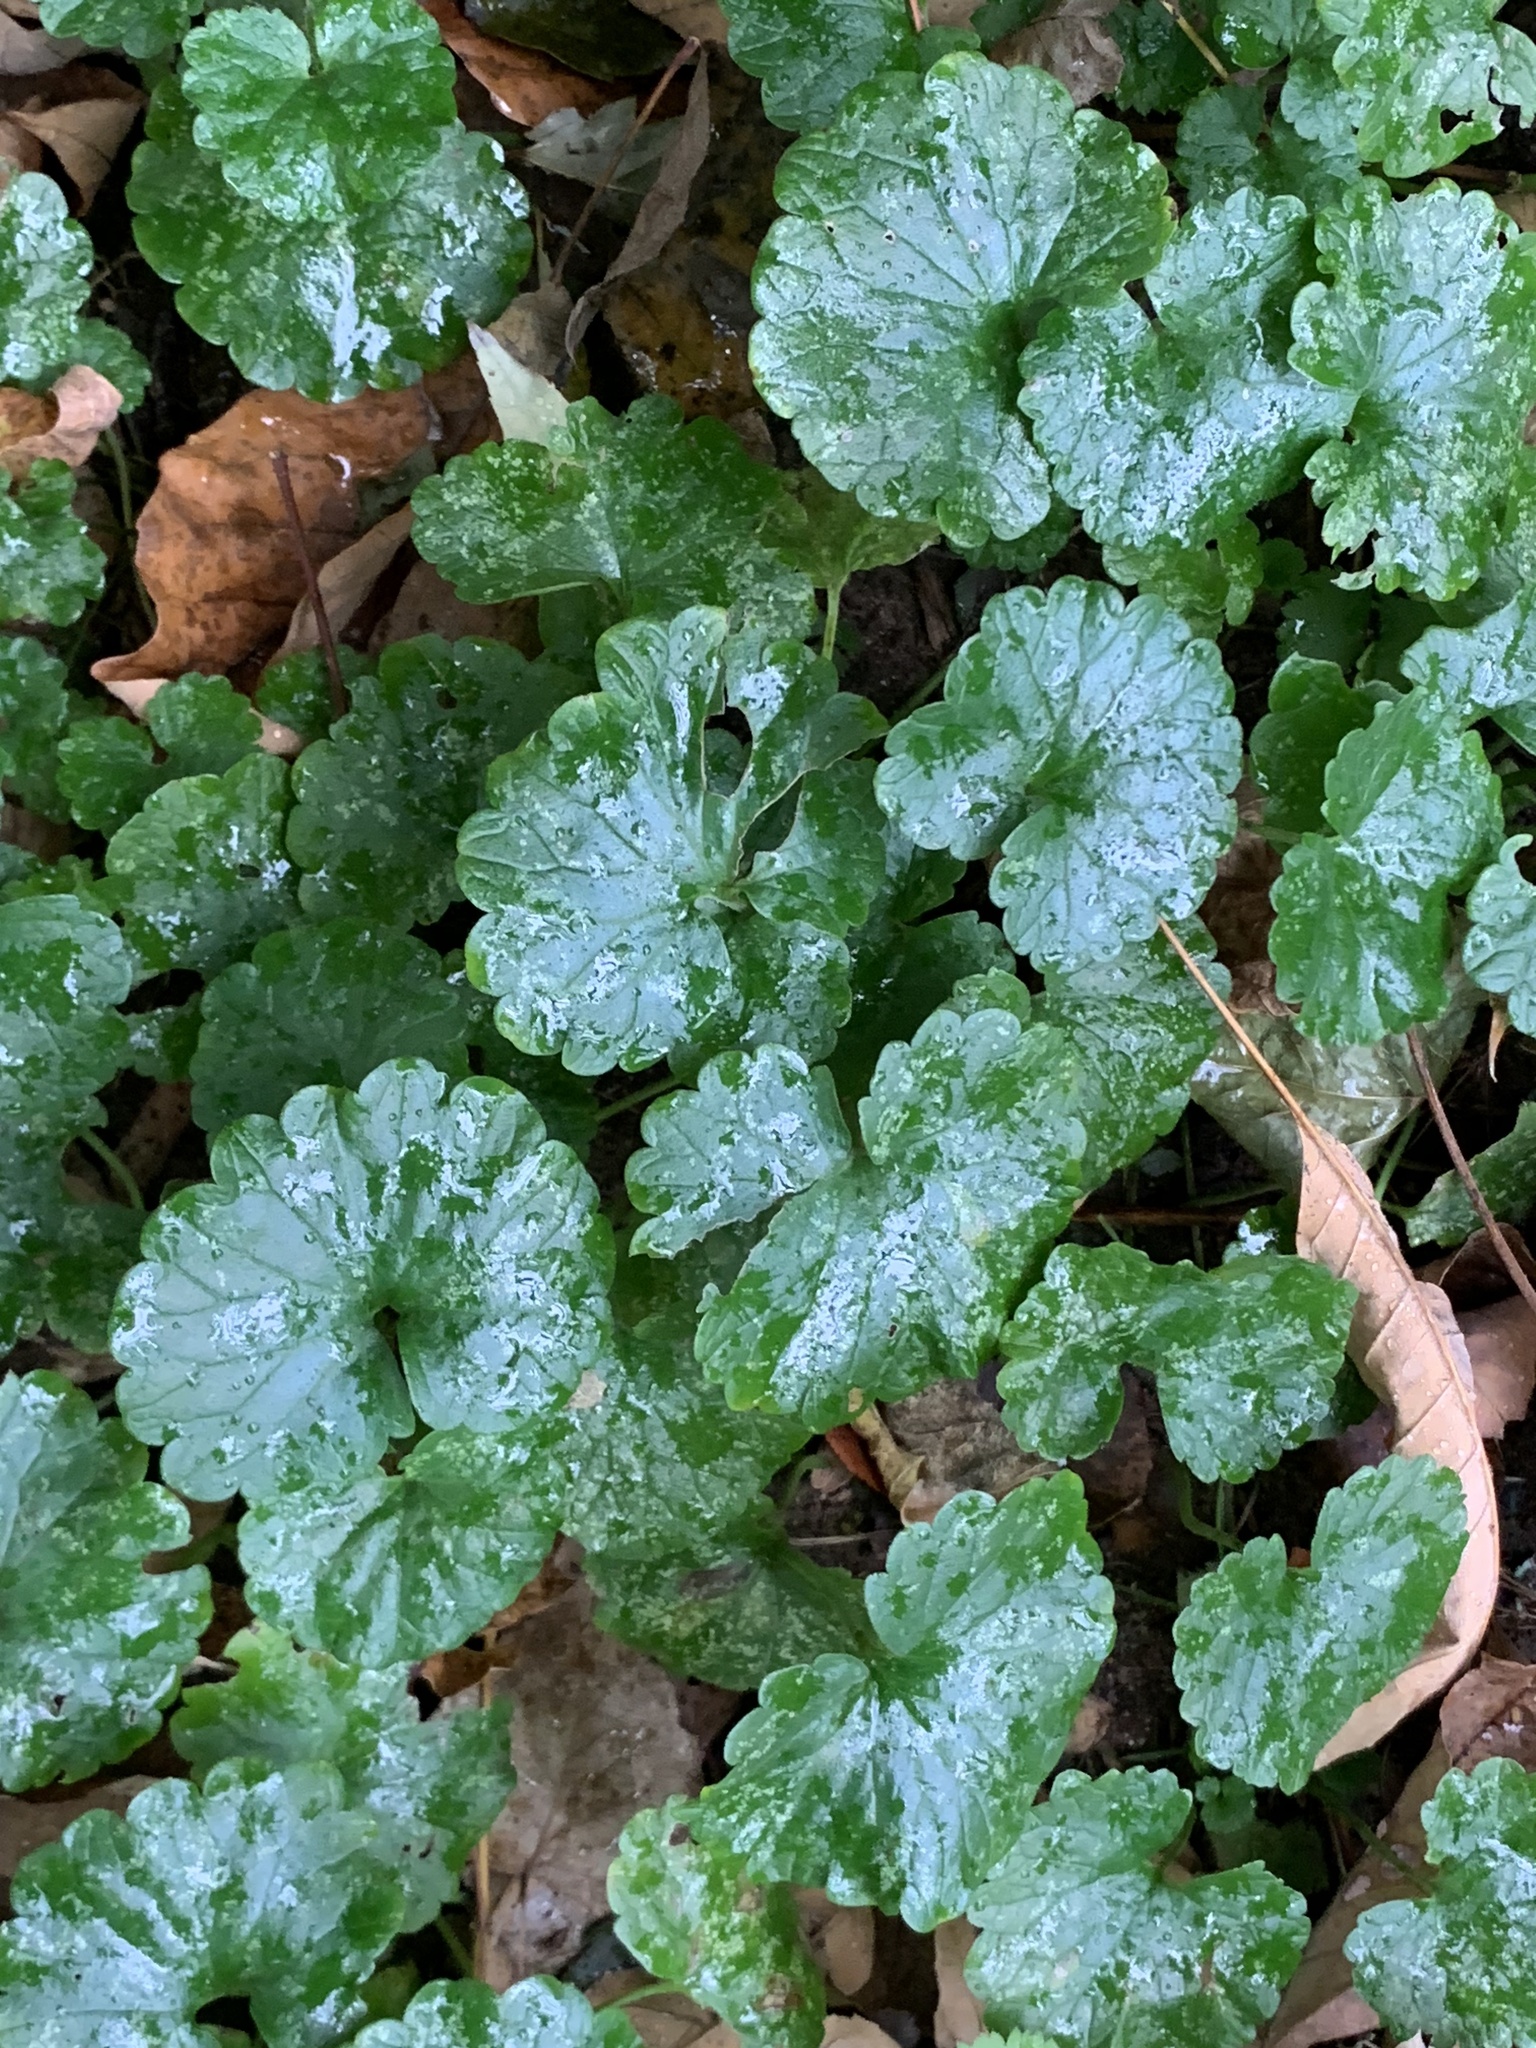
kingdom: Plantae
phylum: Tracheophyta
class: Magnoliopsida
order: Lamiales
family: Lamiaceae
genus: Glechoma
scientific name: Glechoma hederacea
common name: Ground ivy
